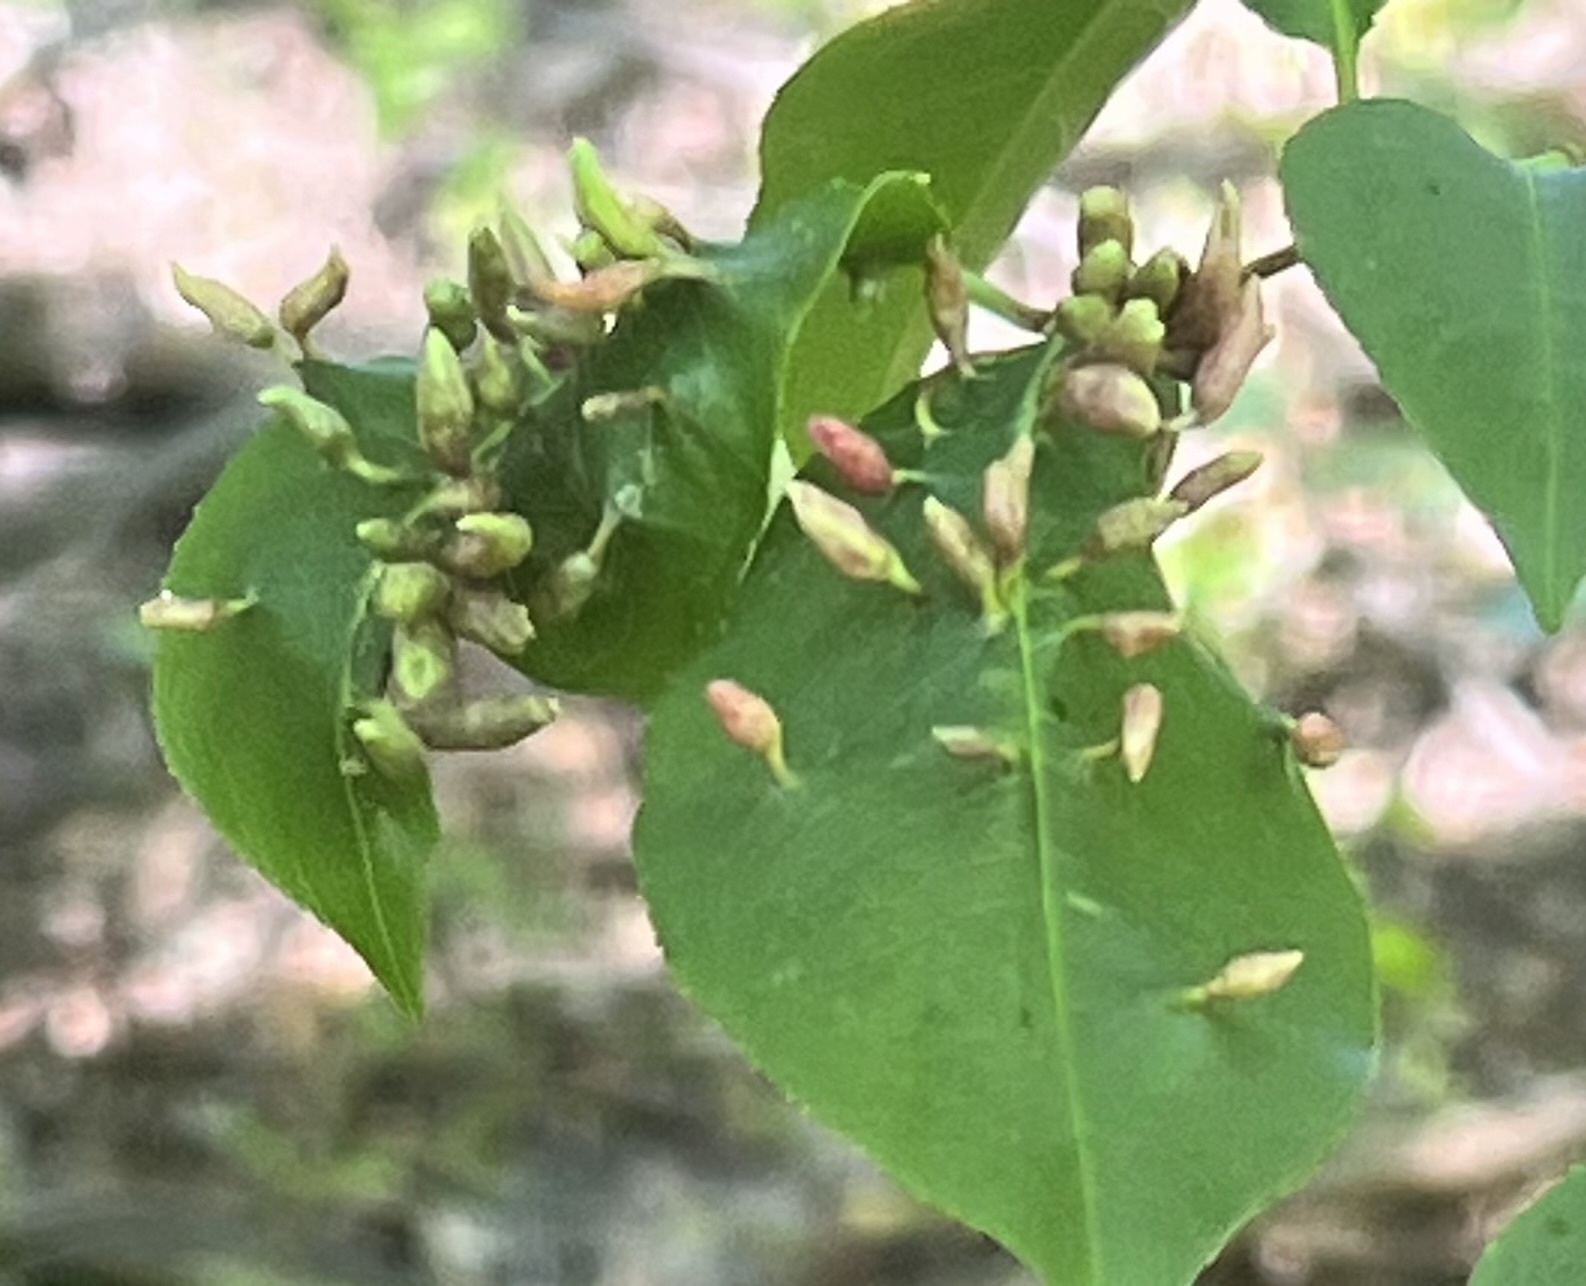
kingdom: Animalia
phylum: Arthropoda
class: Arachnida
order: Trombidiformes
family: Eriophyidae
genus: Eriophyes
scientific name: Eriophyes
